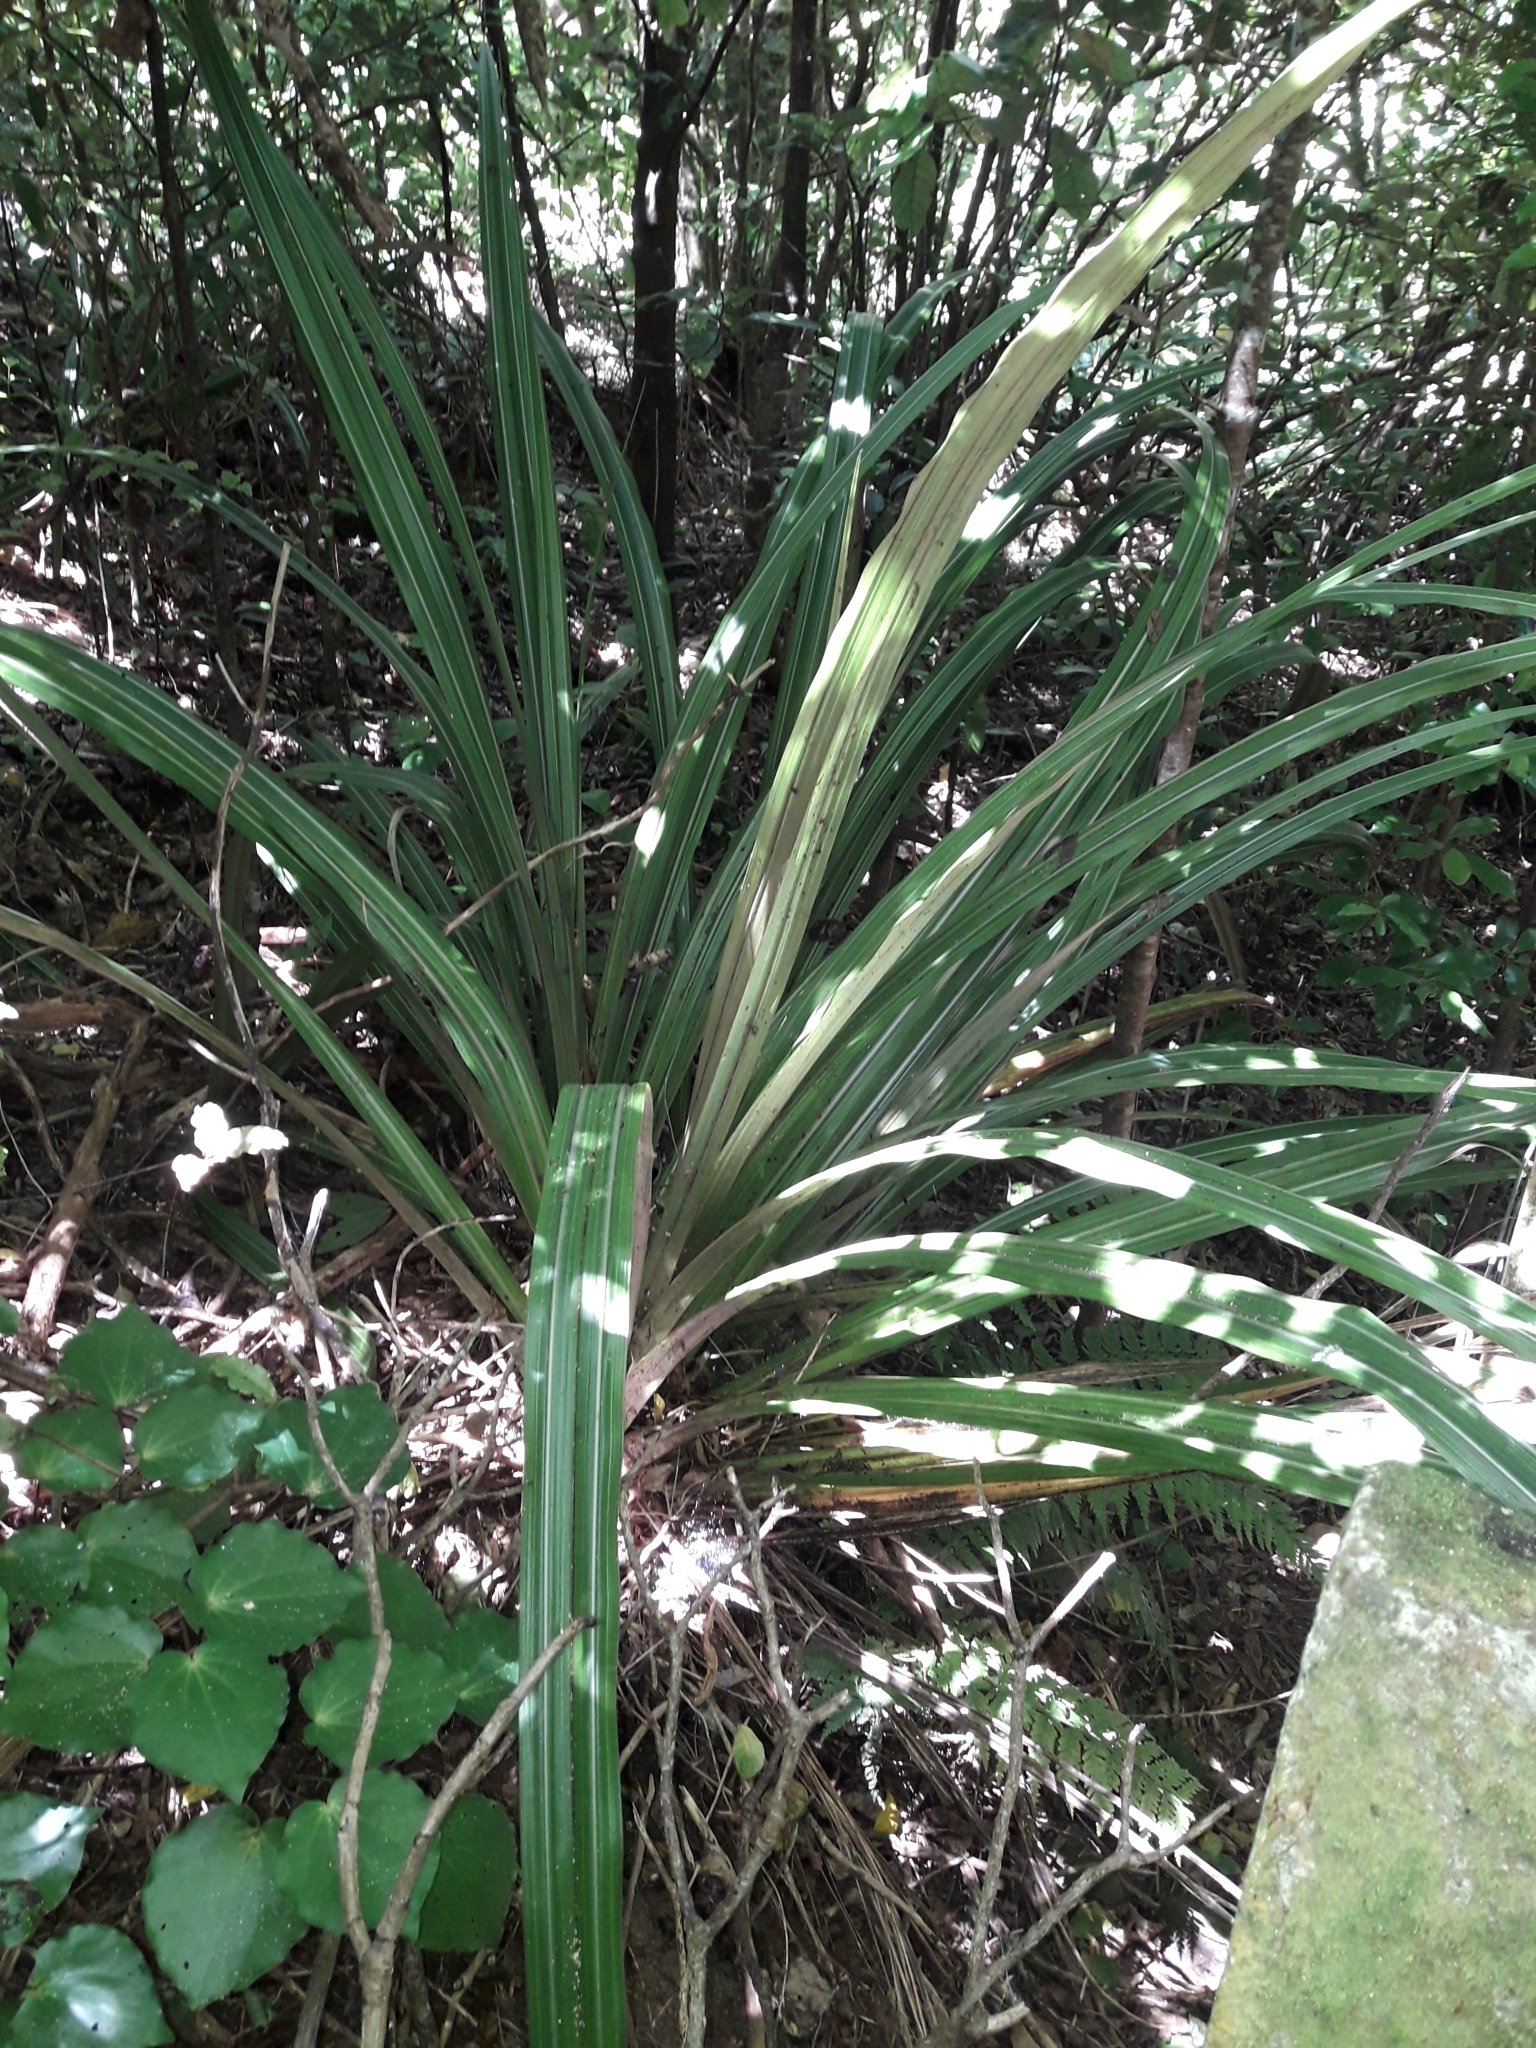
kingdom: Plantae
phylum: Tracheophyta
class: Liliopsida
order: Asparagales
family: Asteliaceae
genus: Astelia
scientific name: Astelia fragrans
